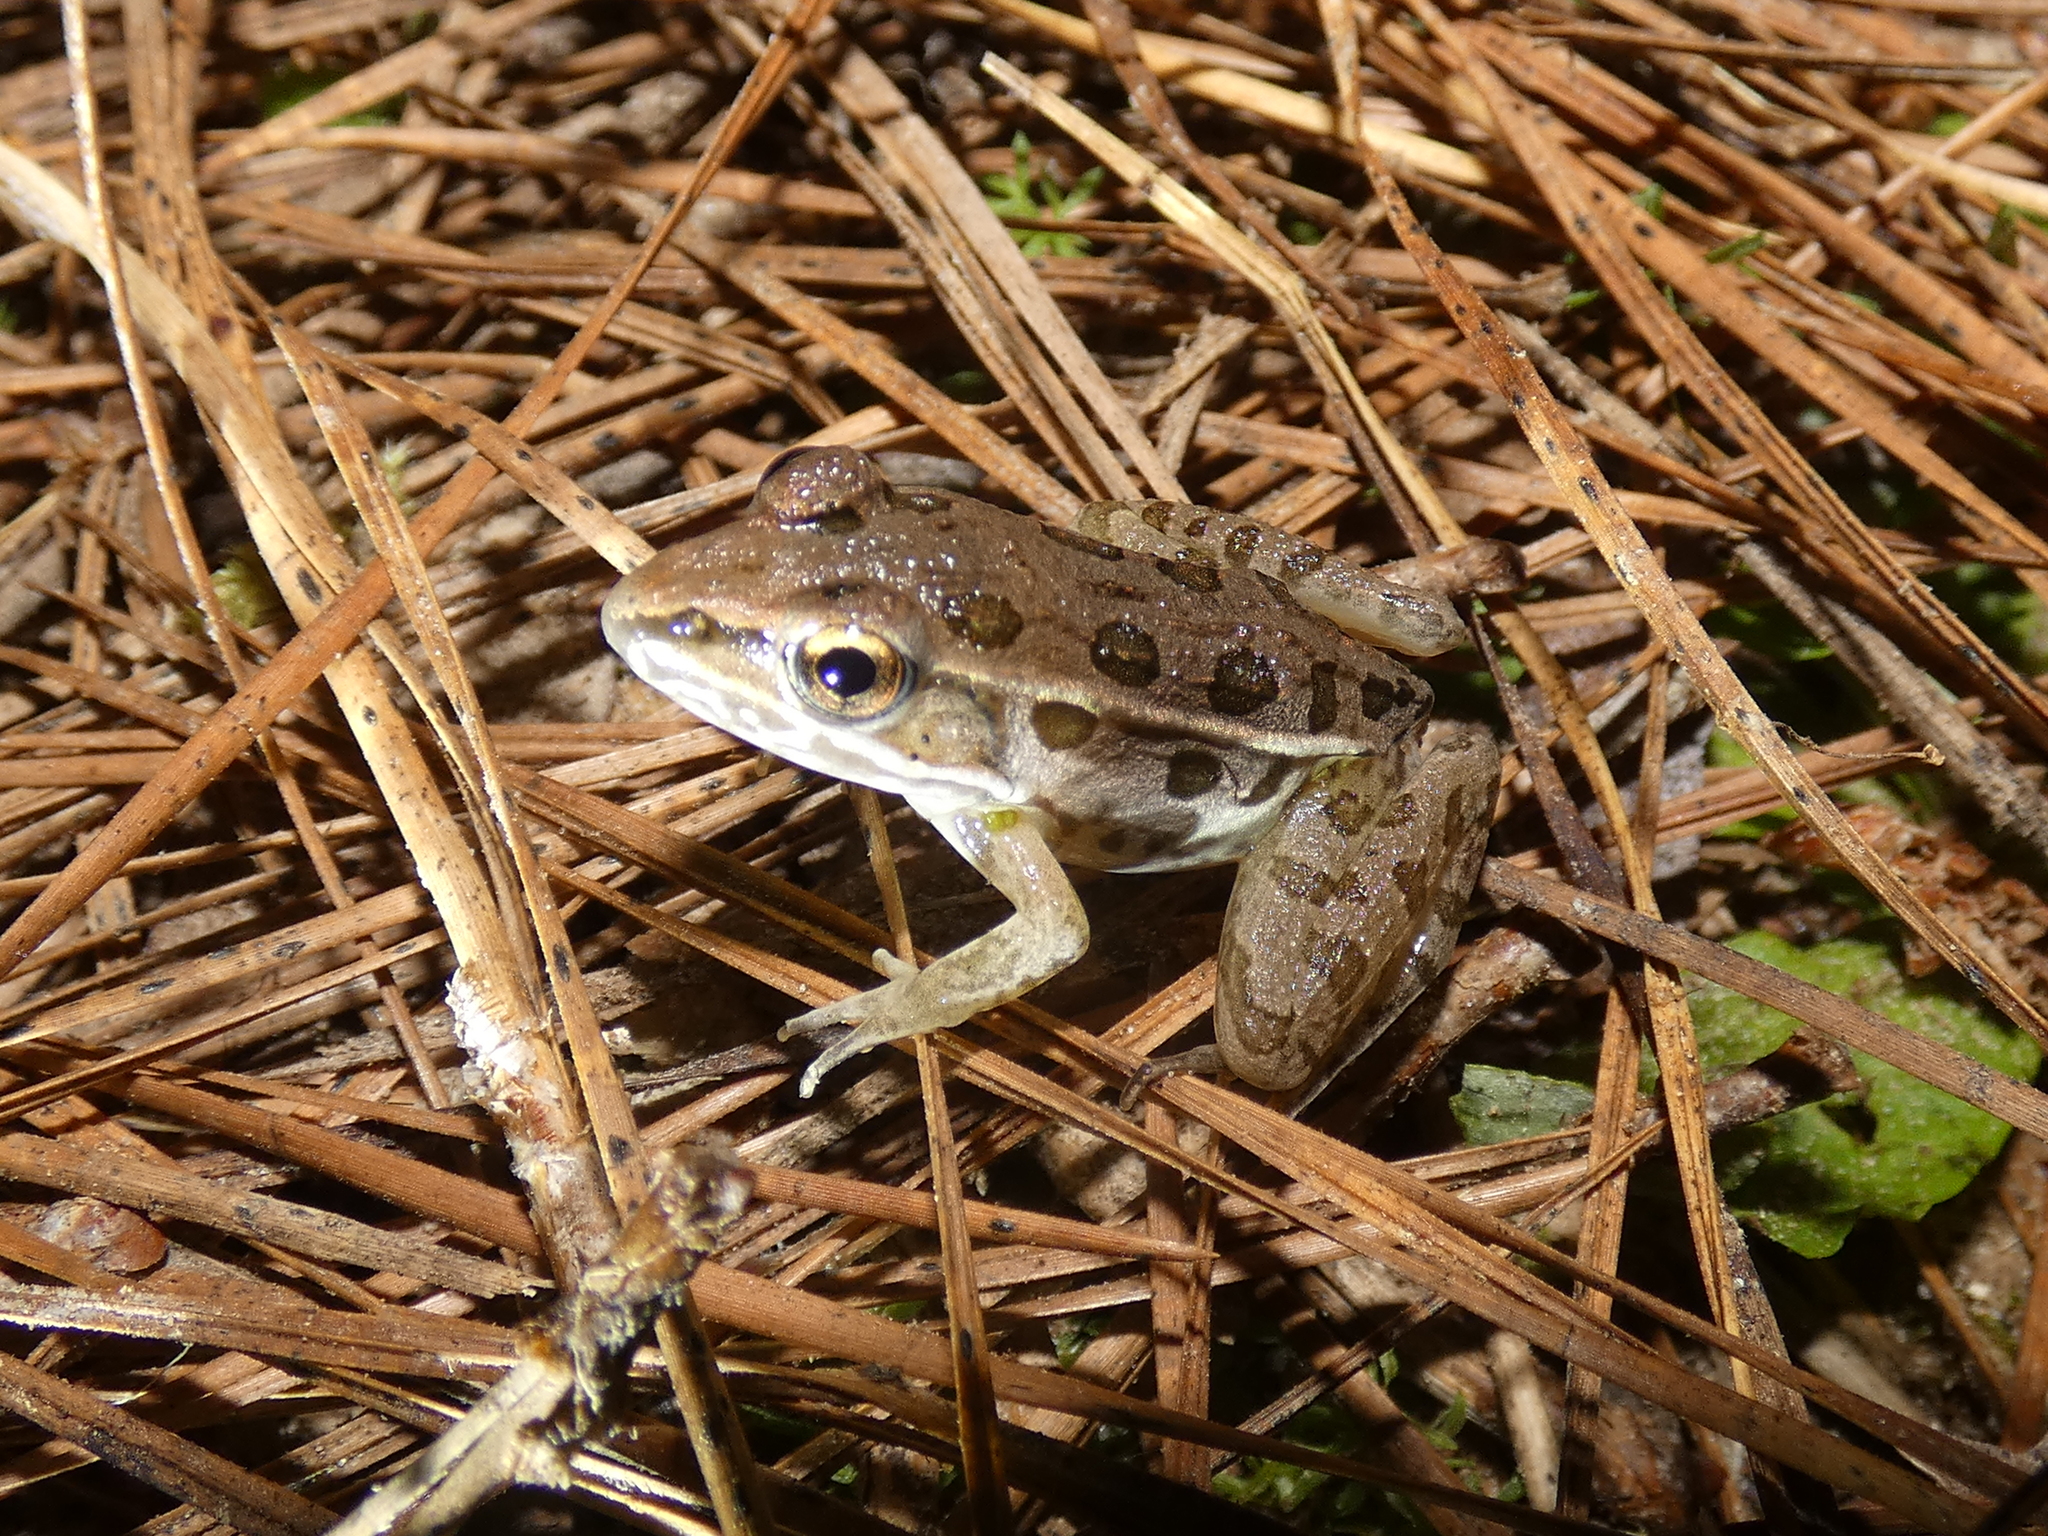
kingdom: Animalia
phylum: Chordata
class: Amphibia
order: Anura
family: Ranidae
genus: Lithobates
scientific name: Lithobates sphenocephalus
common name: Southern leopard frog
